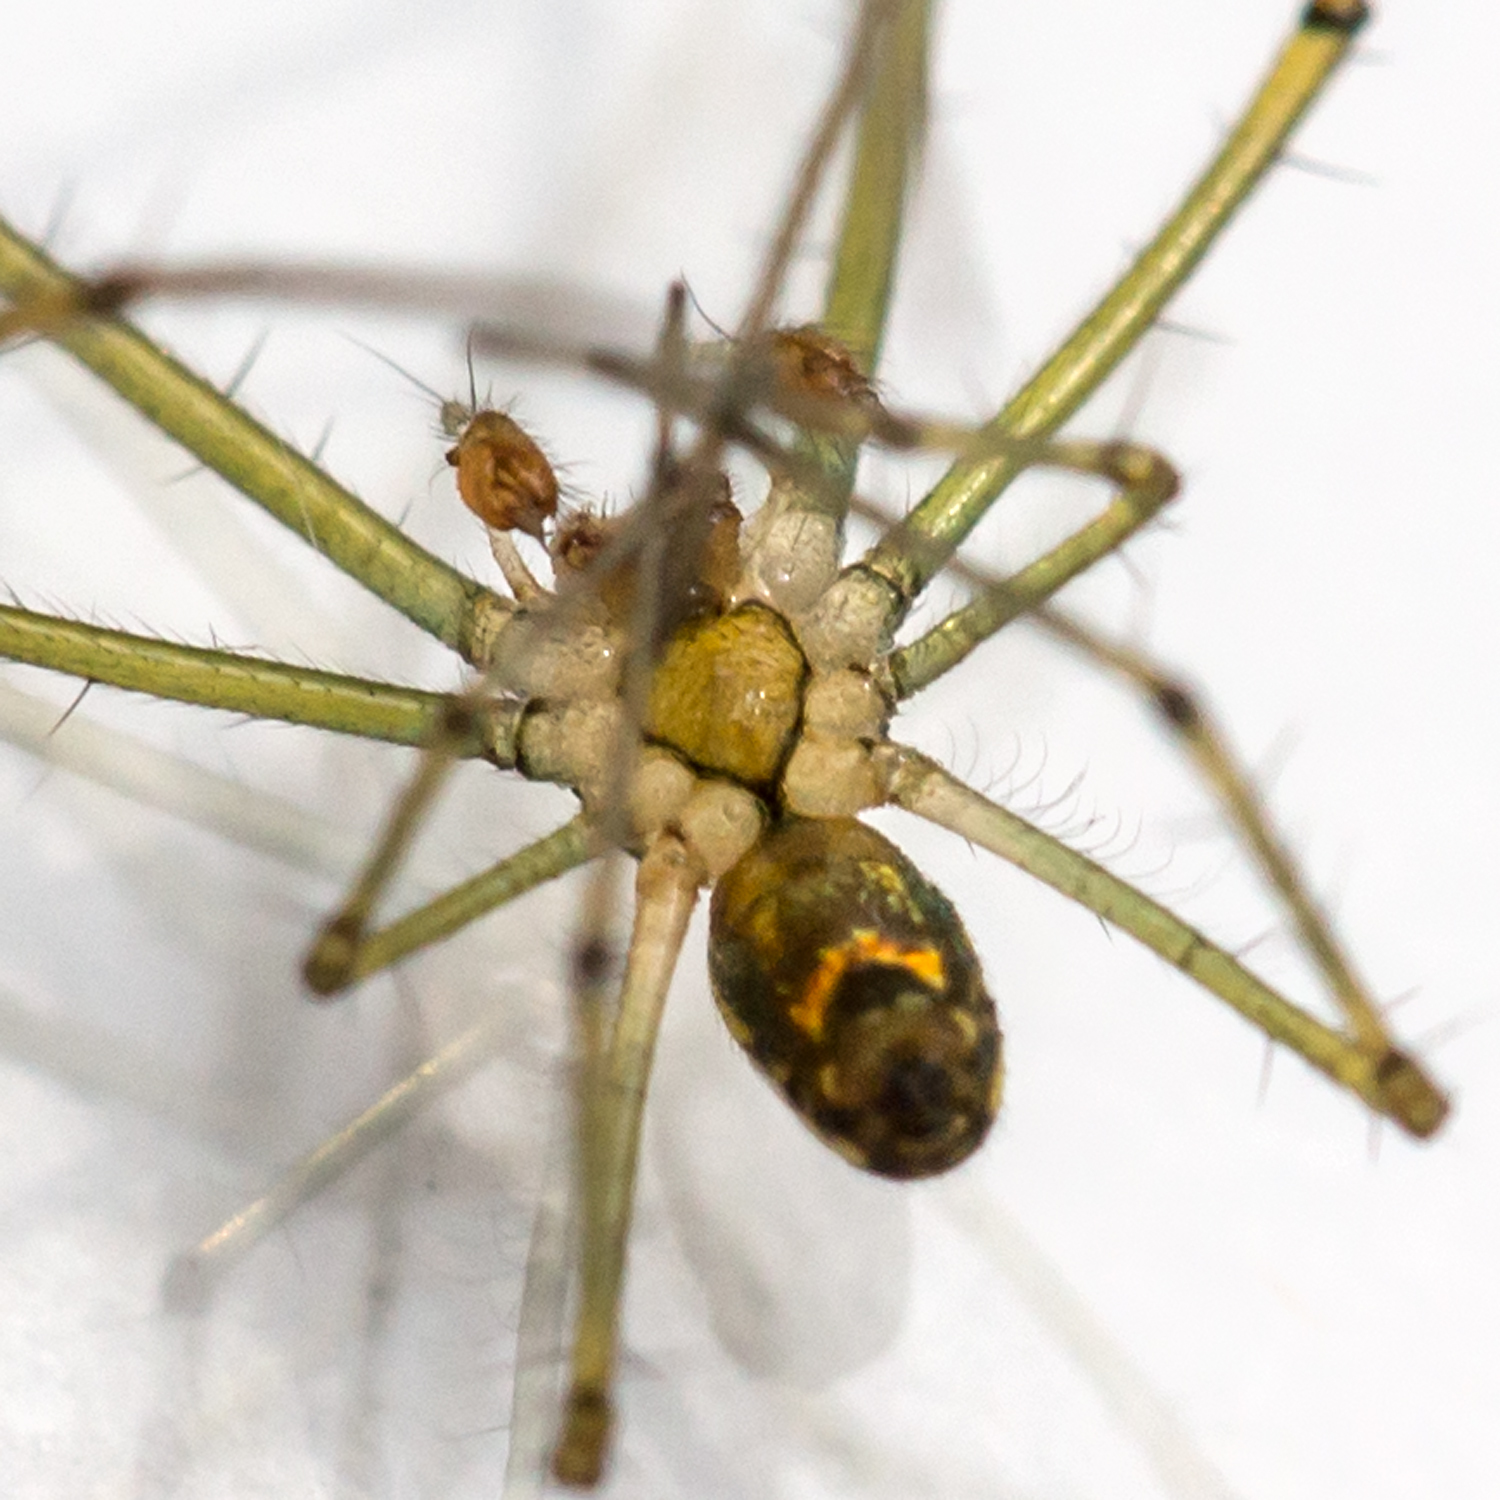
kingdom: Animalia
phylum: Arthropoda
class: Arachnida
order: Araneae
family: Tetragnathidae
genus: Leucauge
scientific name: Leucauge venusta
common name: Longjawed orb weavers
